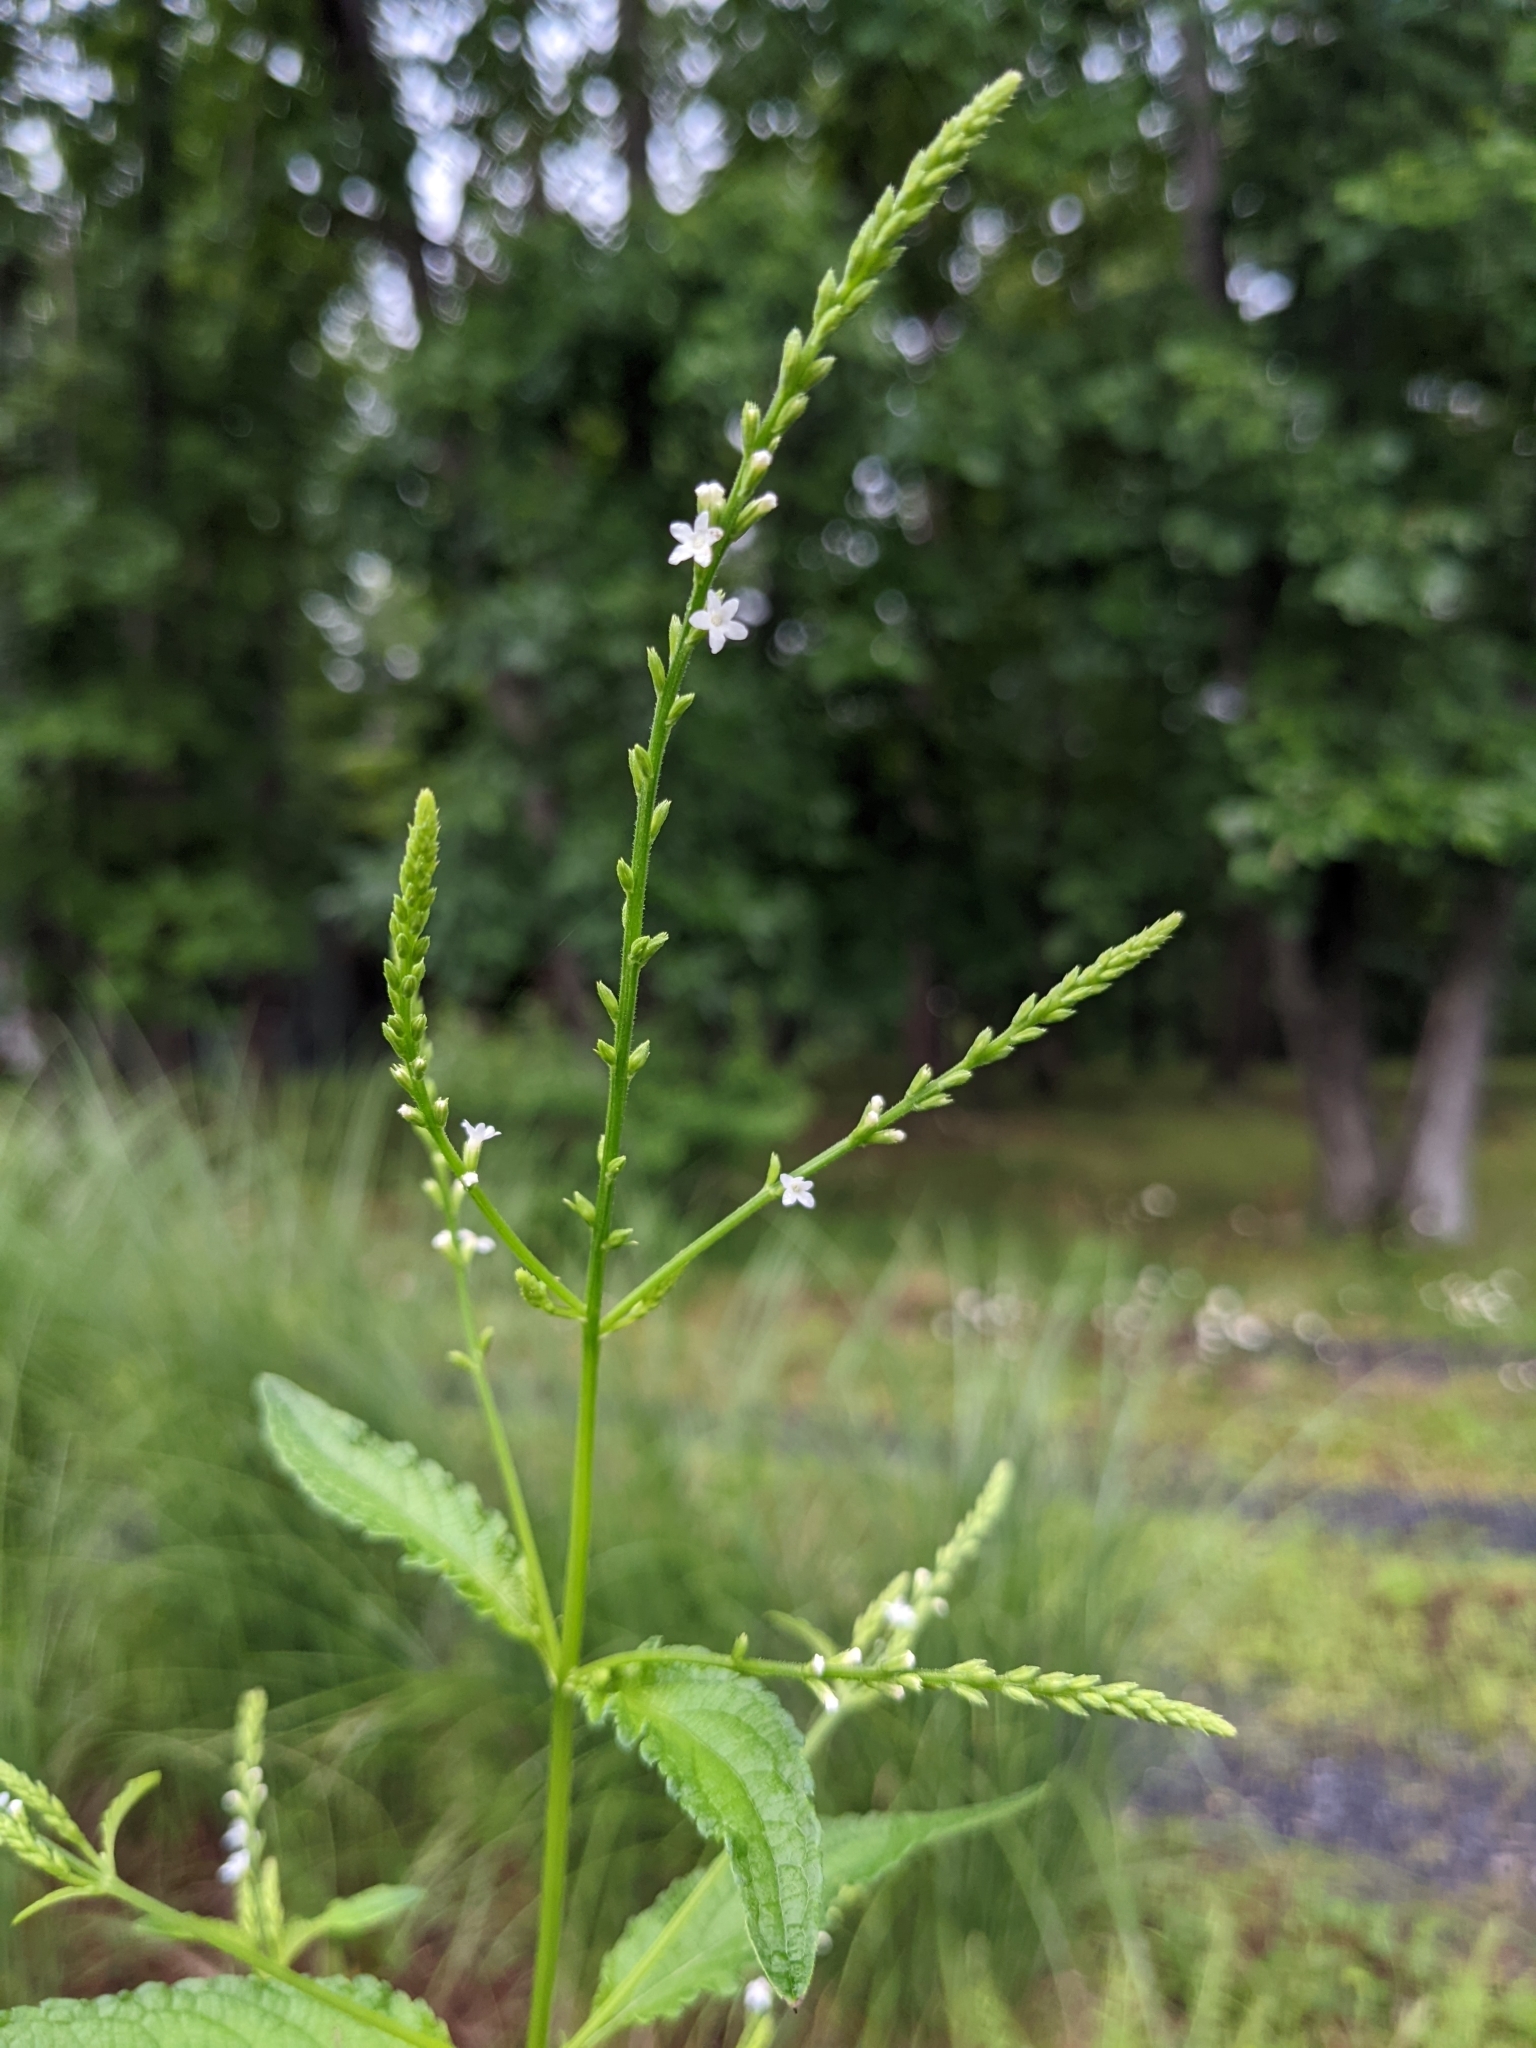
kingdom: Plantae
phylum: Tracheophyta
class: Magnoliopsida
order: Lamiales
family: Verbenaceae
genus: Verbena
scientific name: Verbena urticifolia
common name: Nettle-leaved vervain
